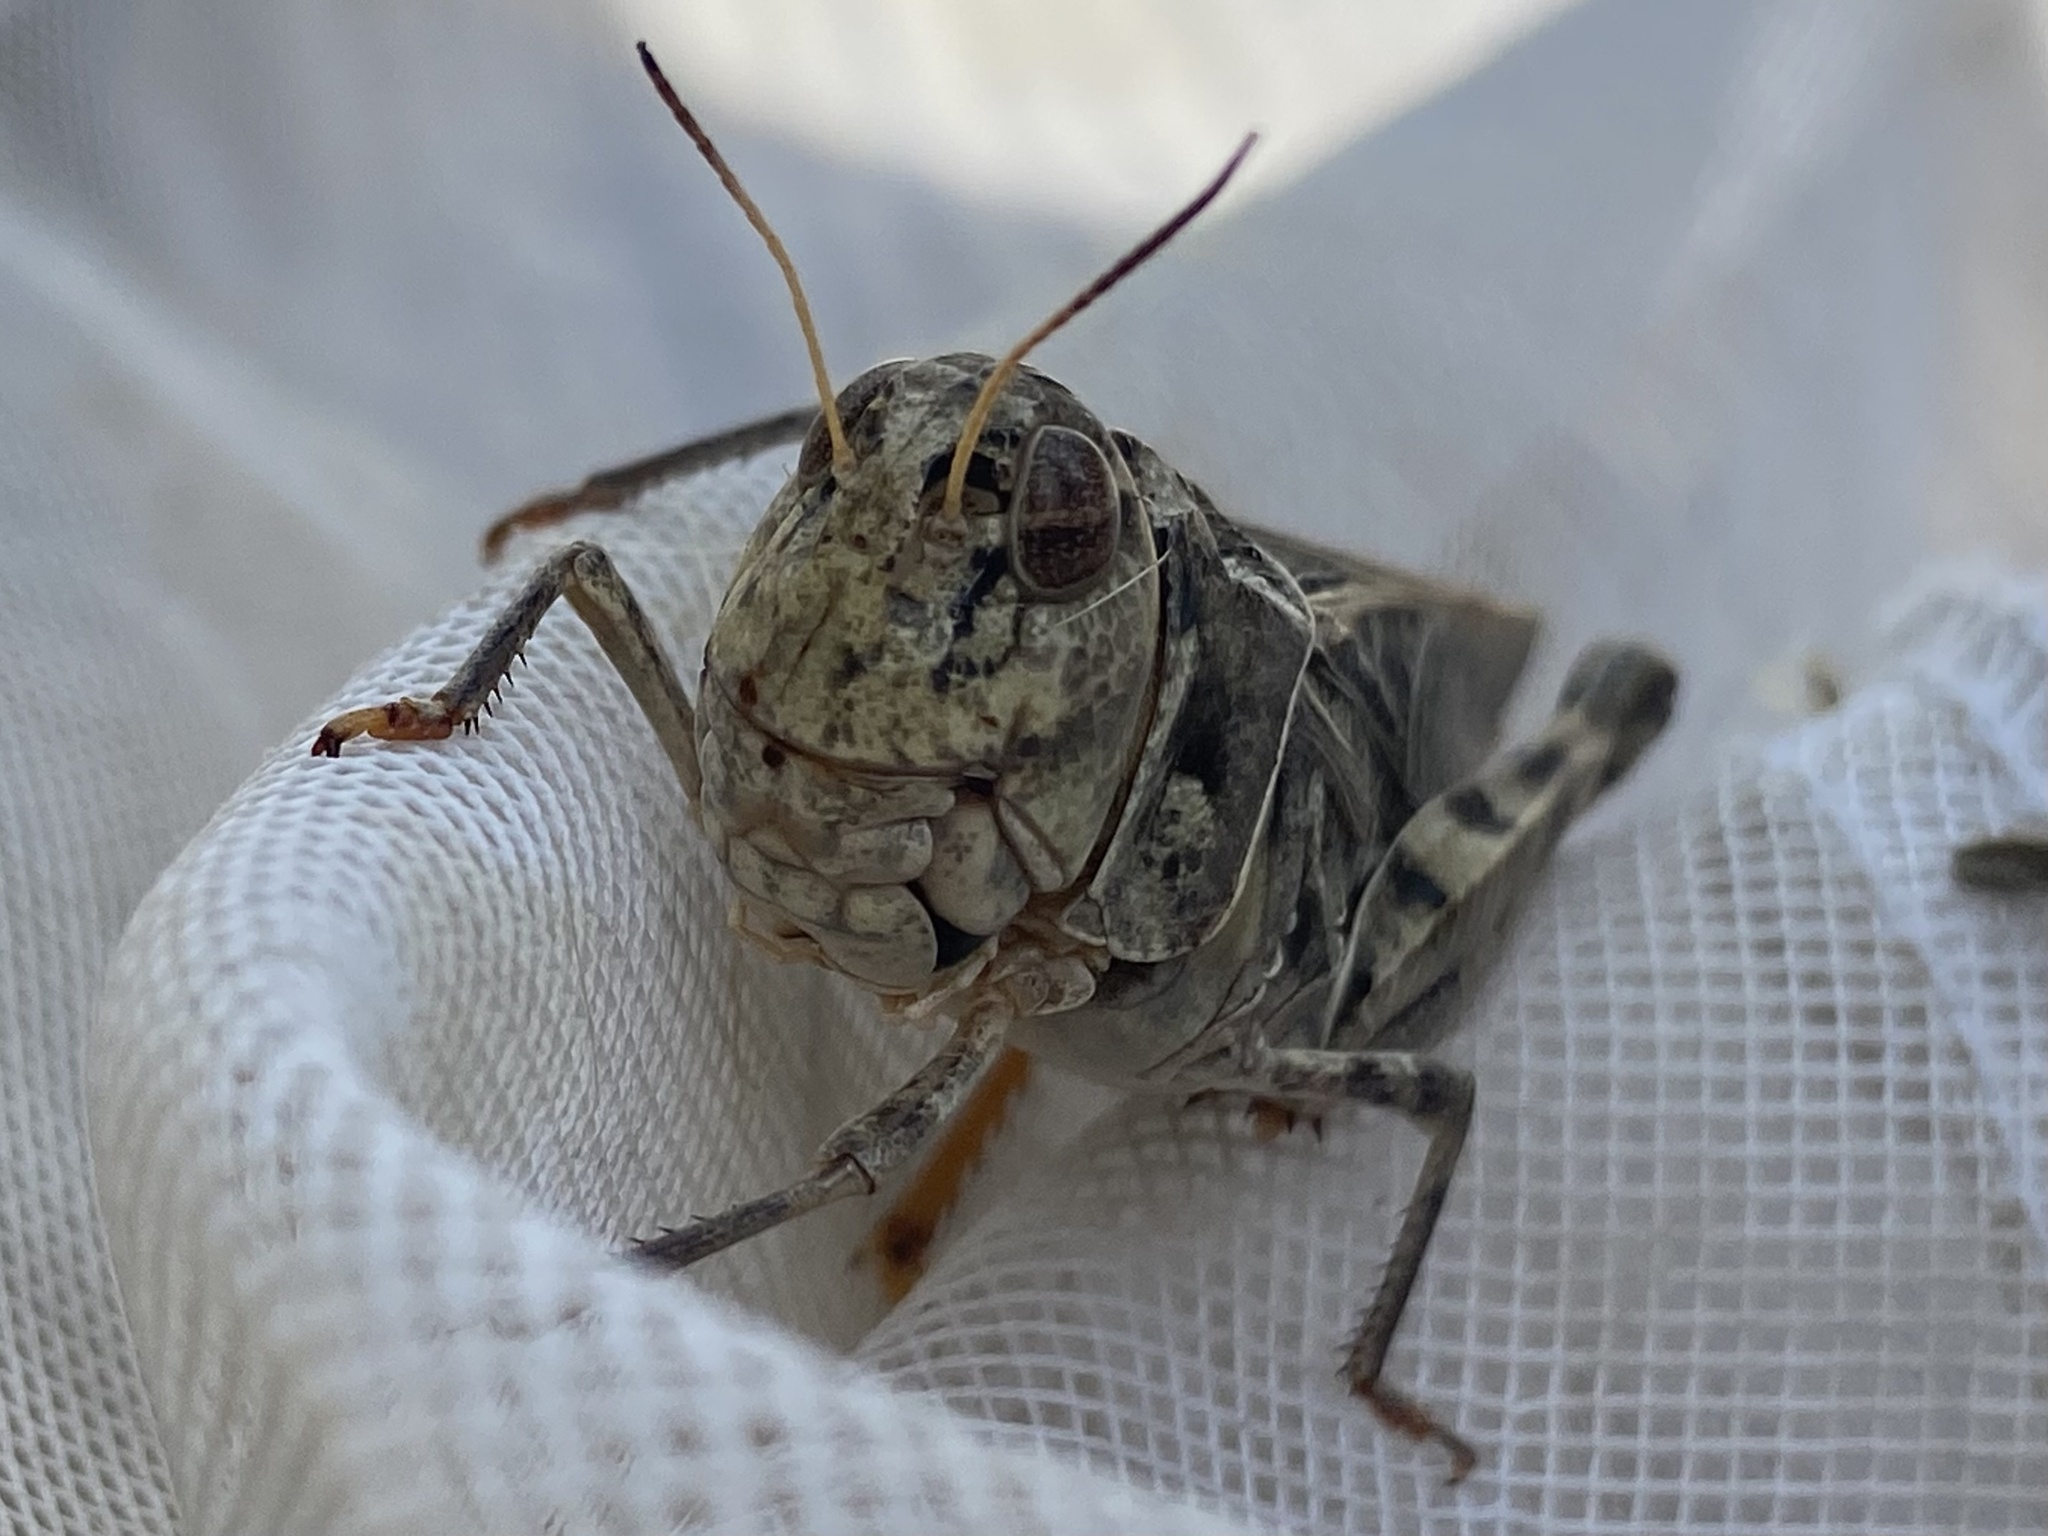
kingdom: Animalia
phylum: Arthropoda
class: Insecta
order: Orthoptera
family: Acrididae
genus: Hippiscus
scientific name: Hippiscus ocelote
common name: Wrinkled grasshopper
